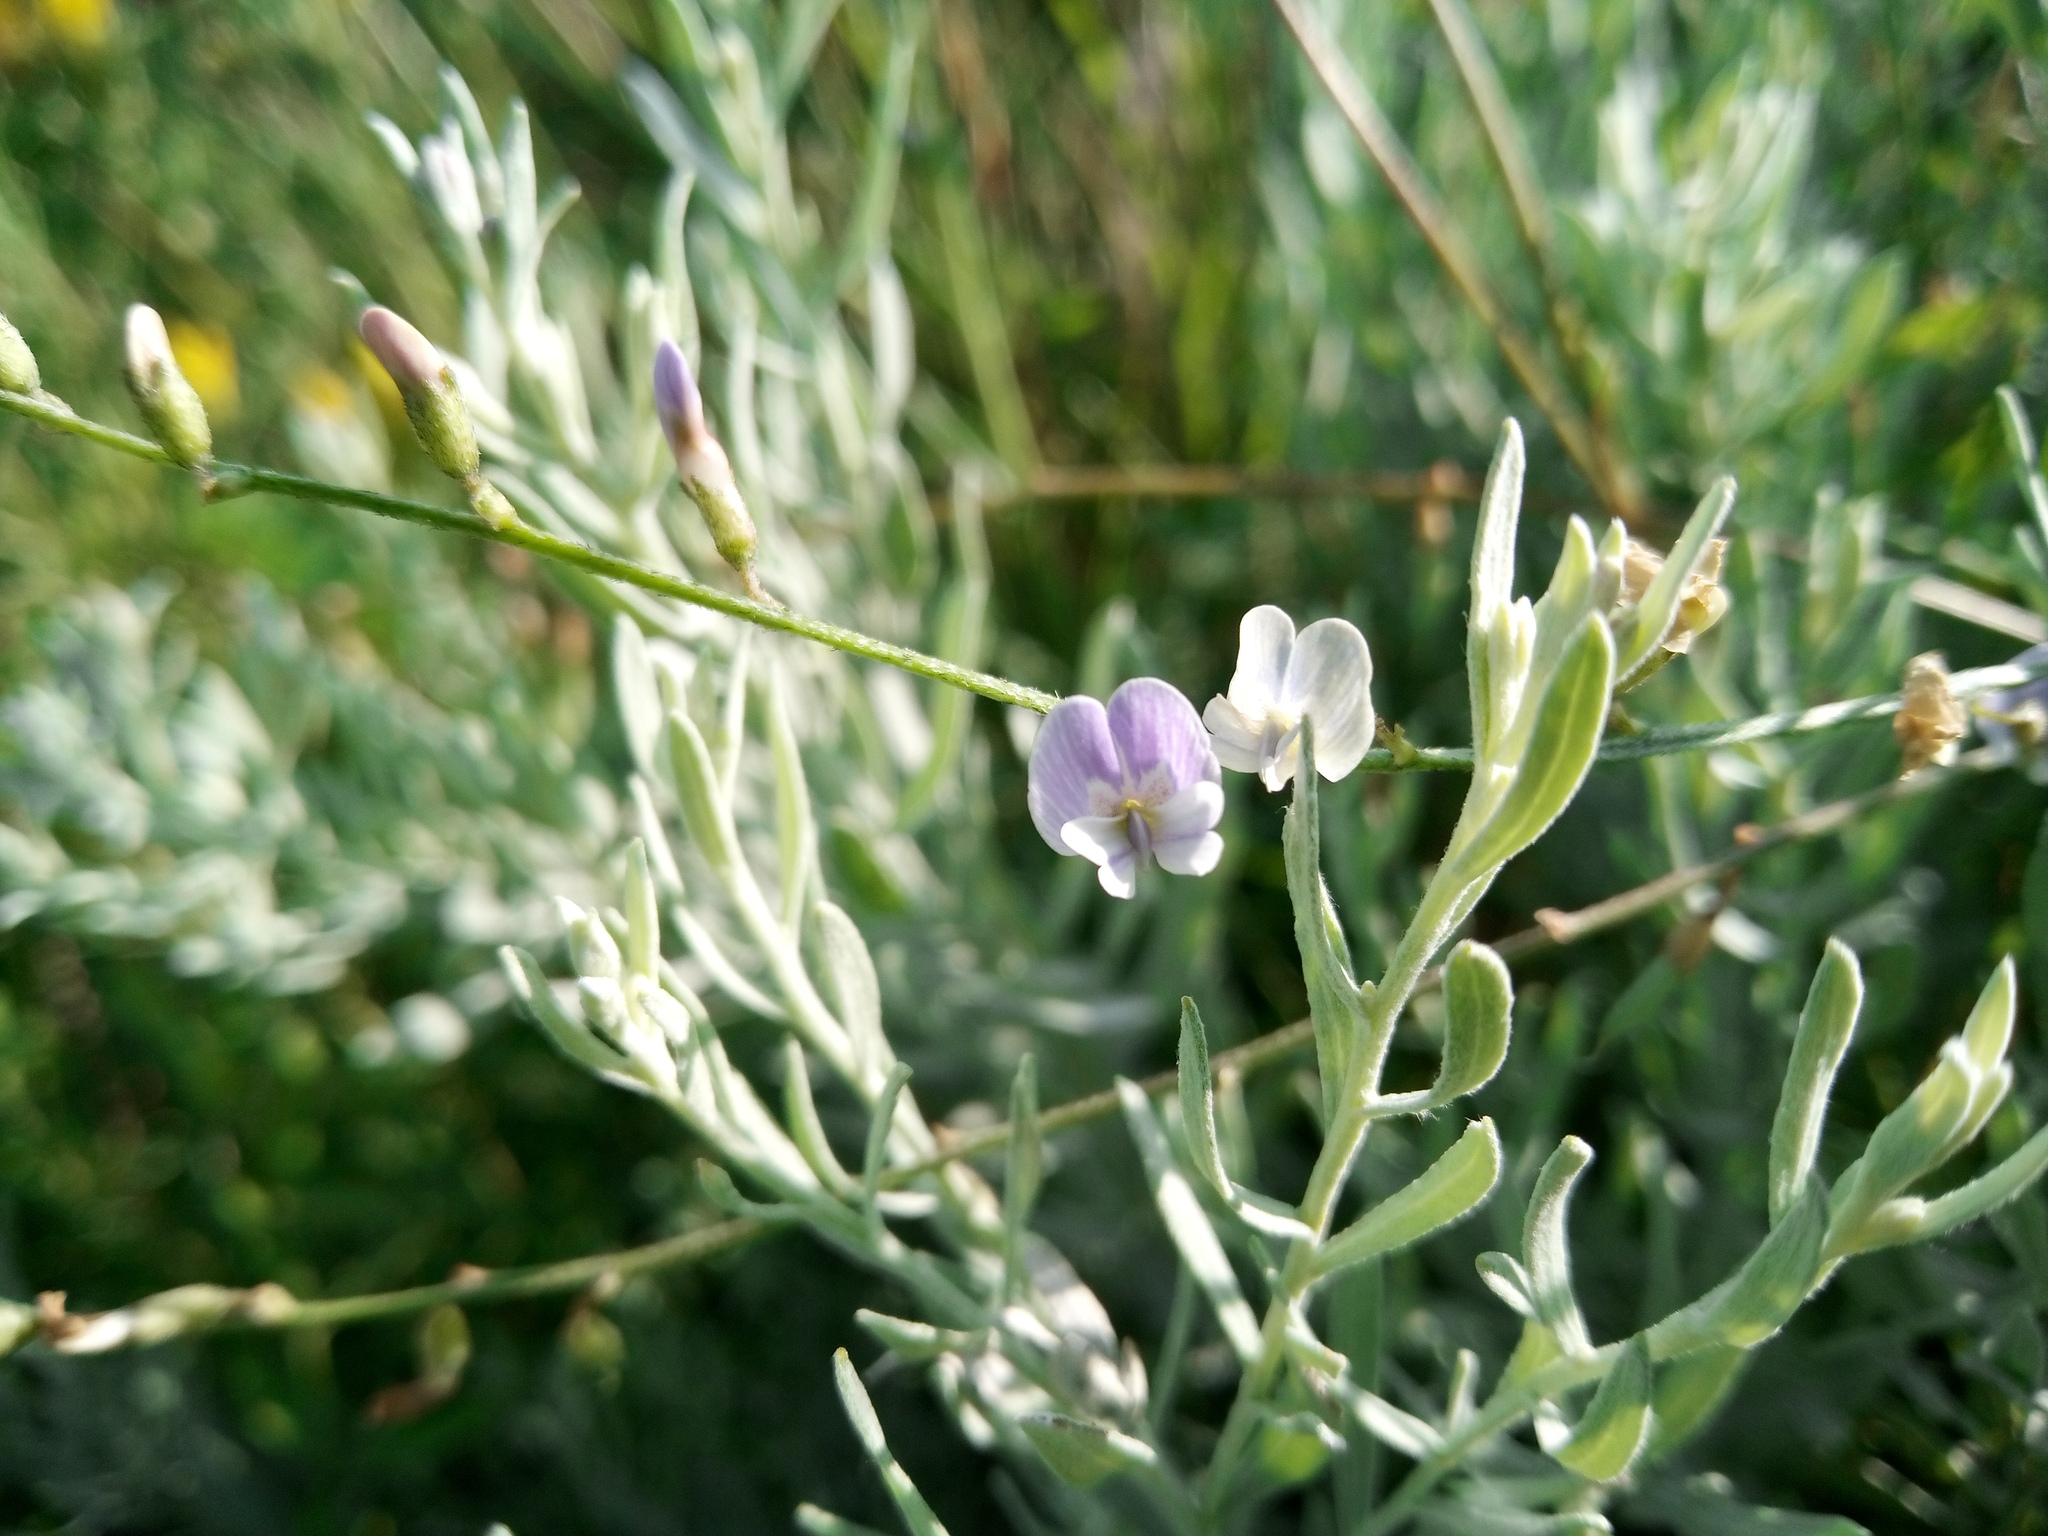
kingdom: Plantae
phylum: Tracheophyta
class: Magnoliopsida
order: Fabales
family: Fabaceae
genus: Astragalus
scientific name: Astragalus austriacus
